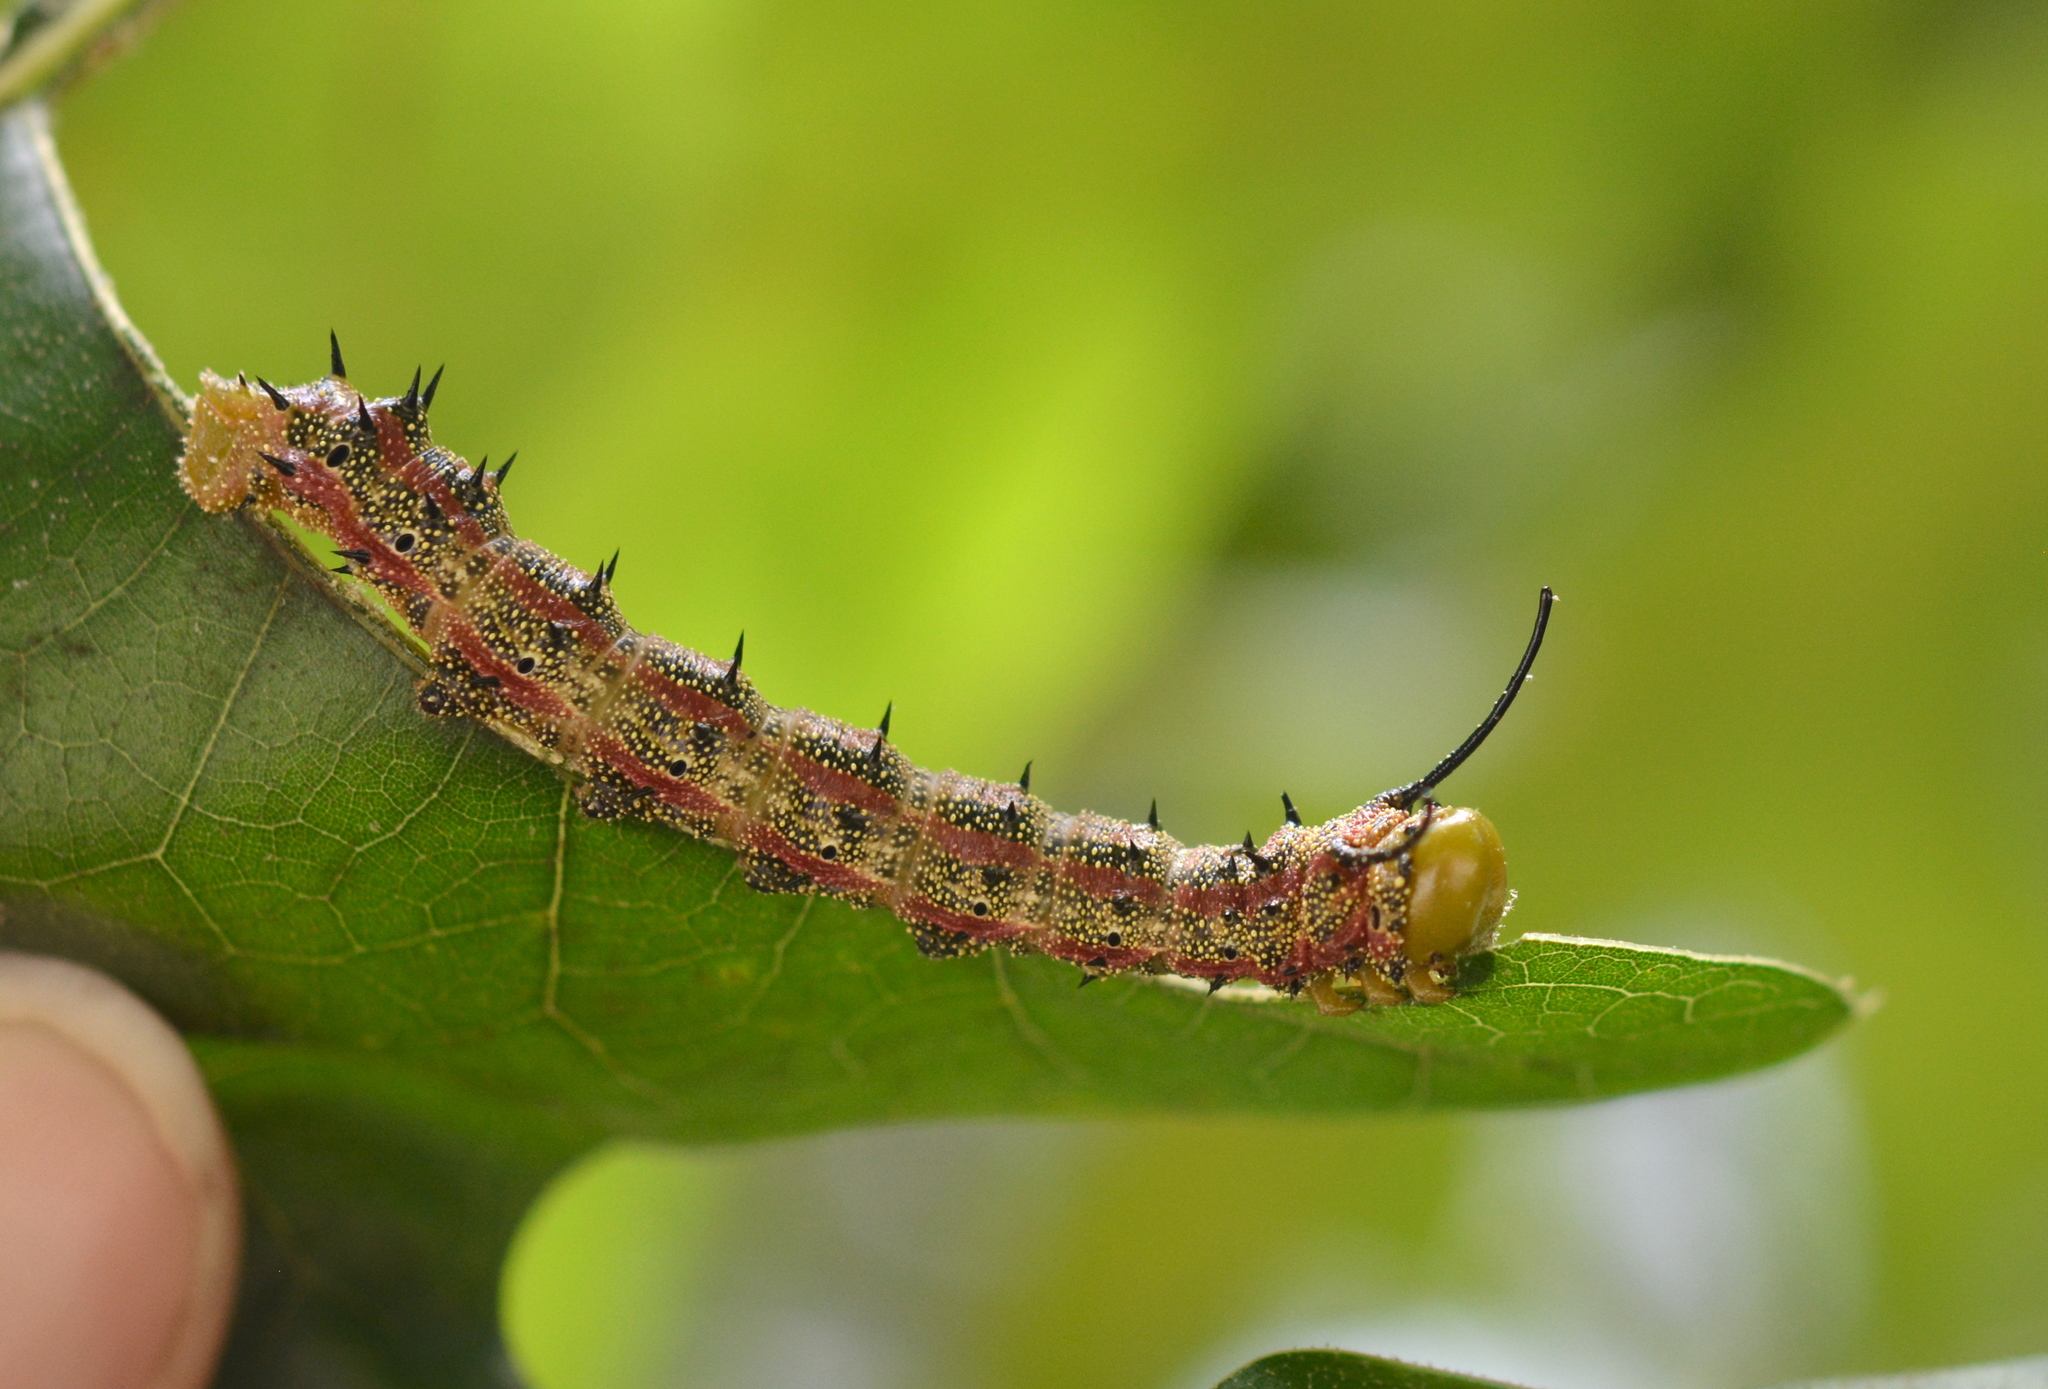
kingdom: Animalia
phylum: Arthropoda
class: Insecta
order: Lepidoptera
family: Saturniidae
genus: Anisota
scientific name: Anisota virginiensis
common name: Pink striped oakworm moth
